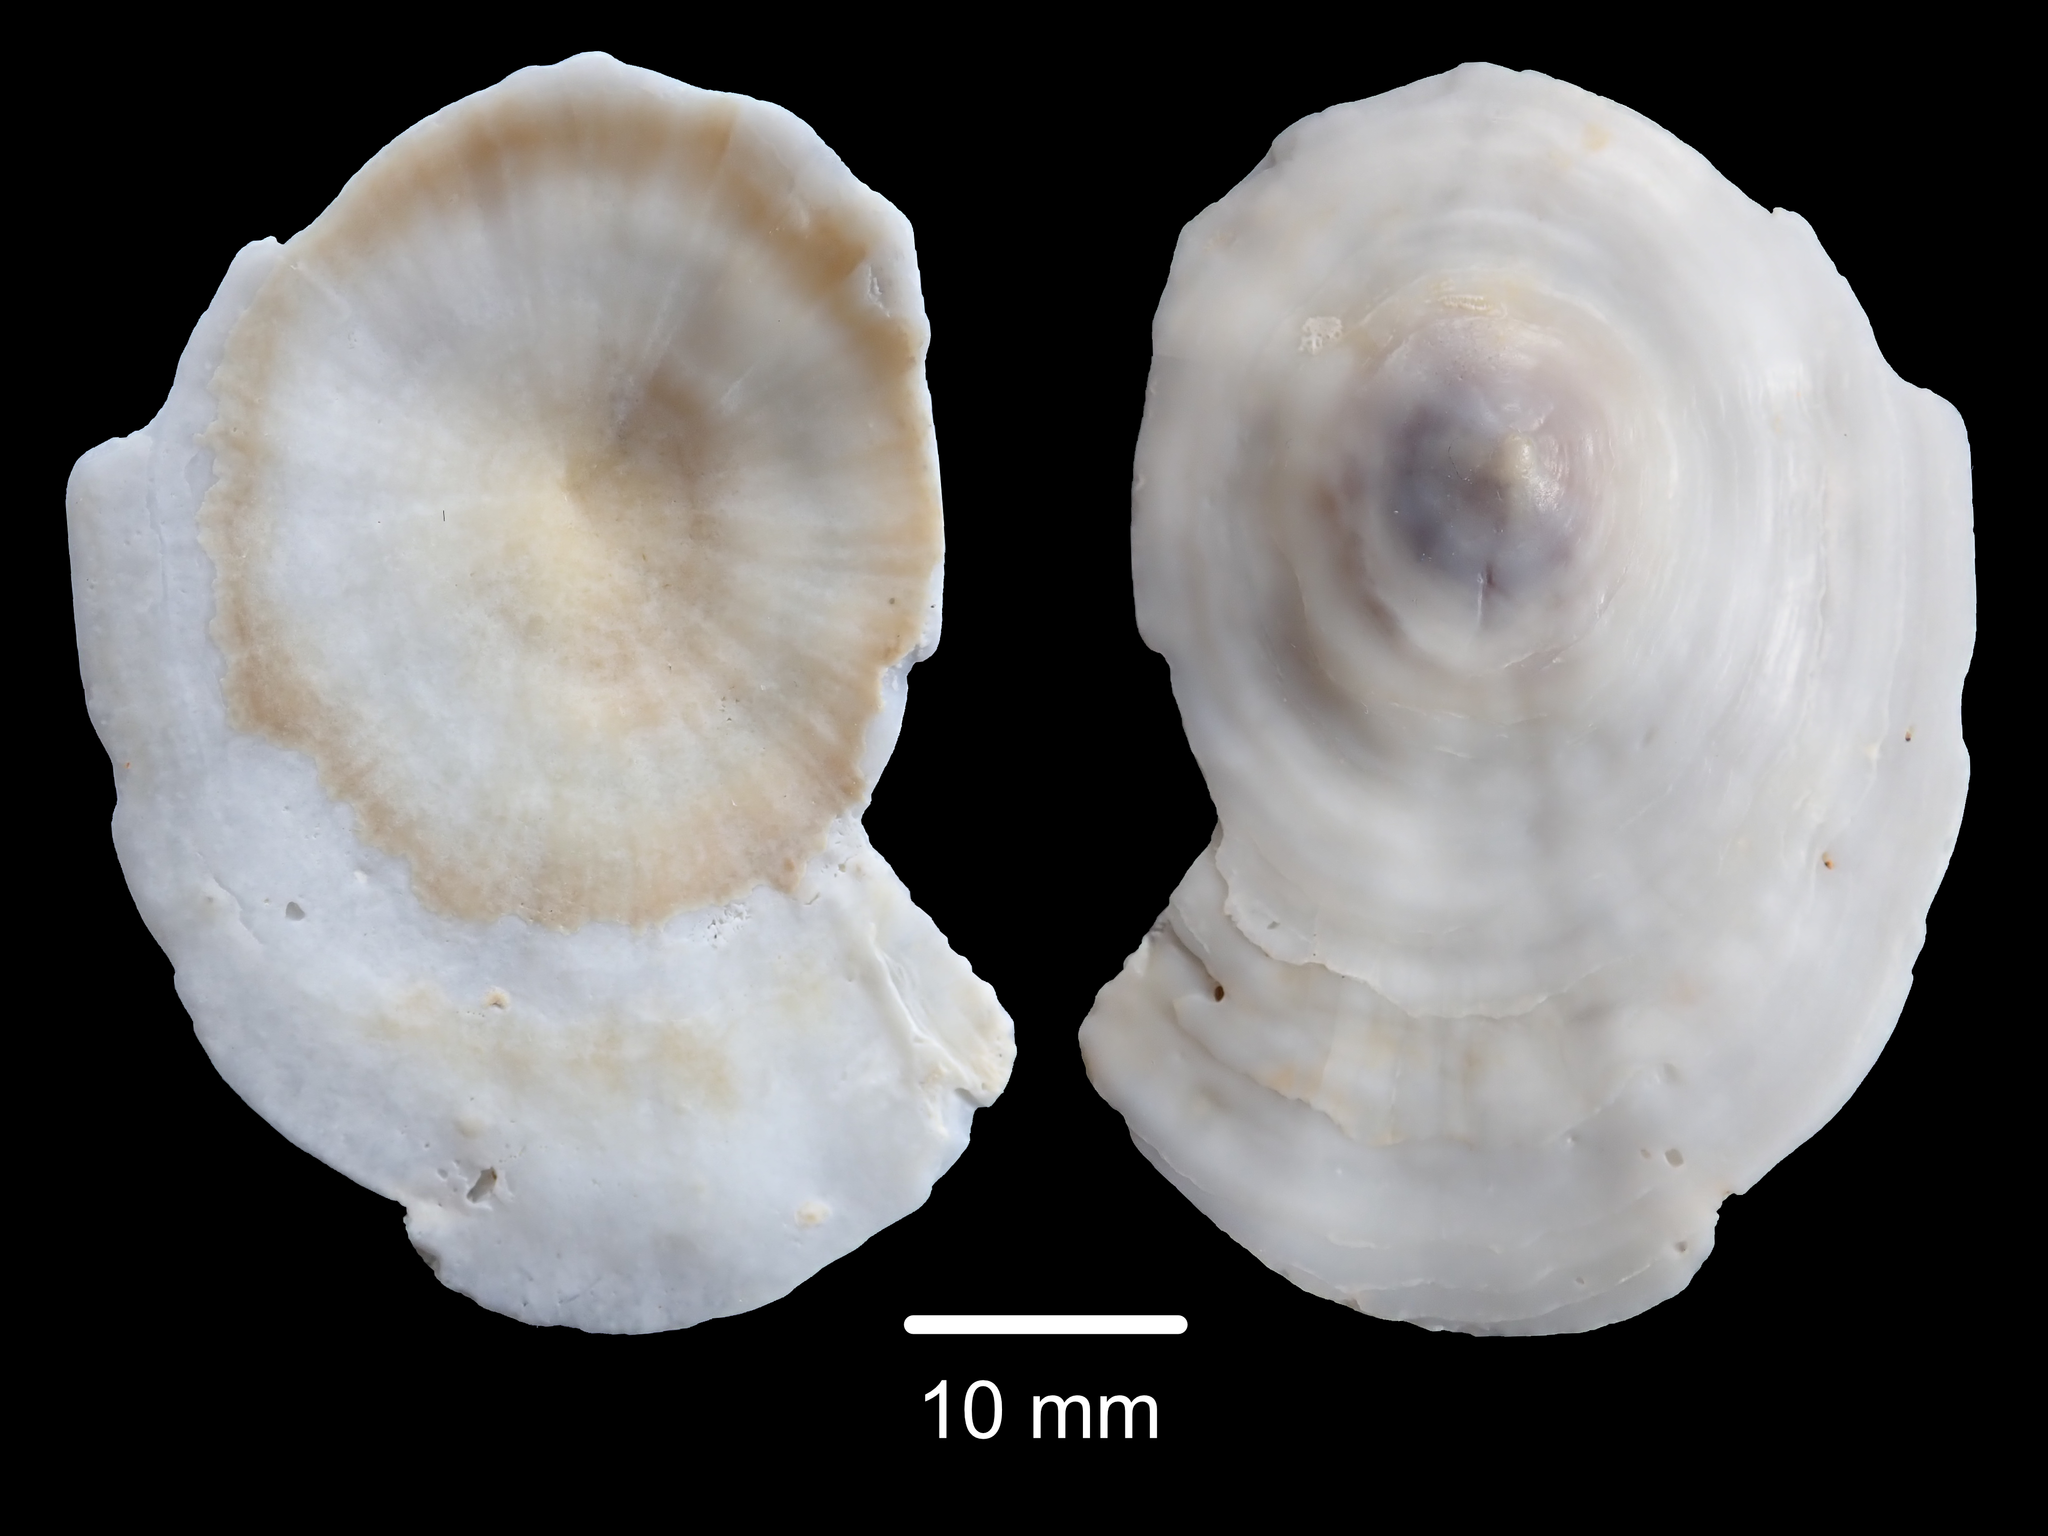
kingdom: Animalia
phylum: Mollusca
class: Gastropoda
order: Umbraculida
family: Umbraculidae
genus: Umbraculum
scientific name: Umbraculum umbraculum
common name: Atlantic umbrella slug
